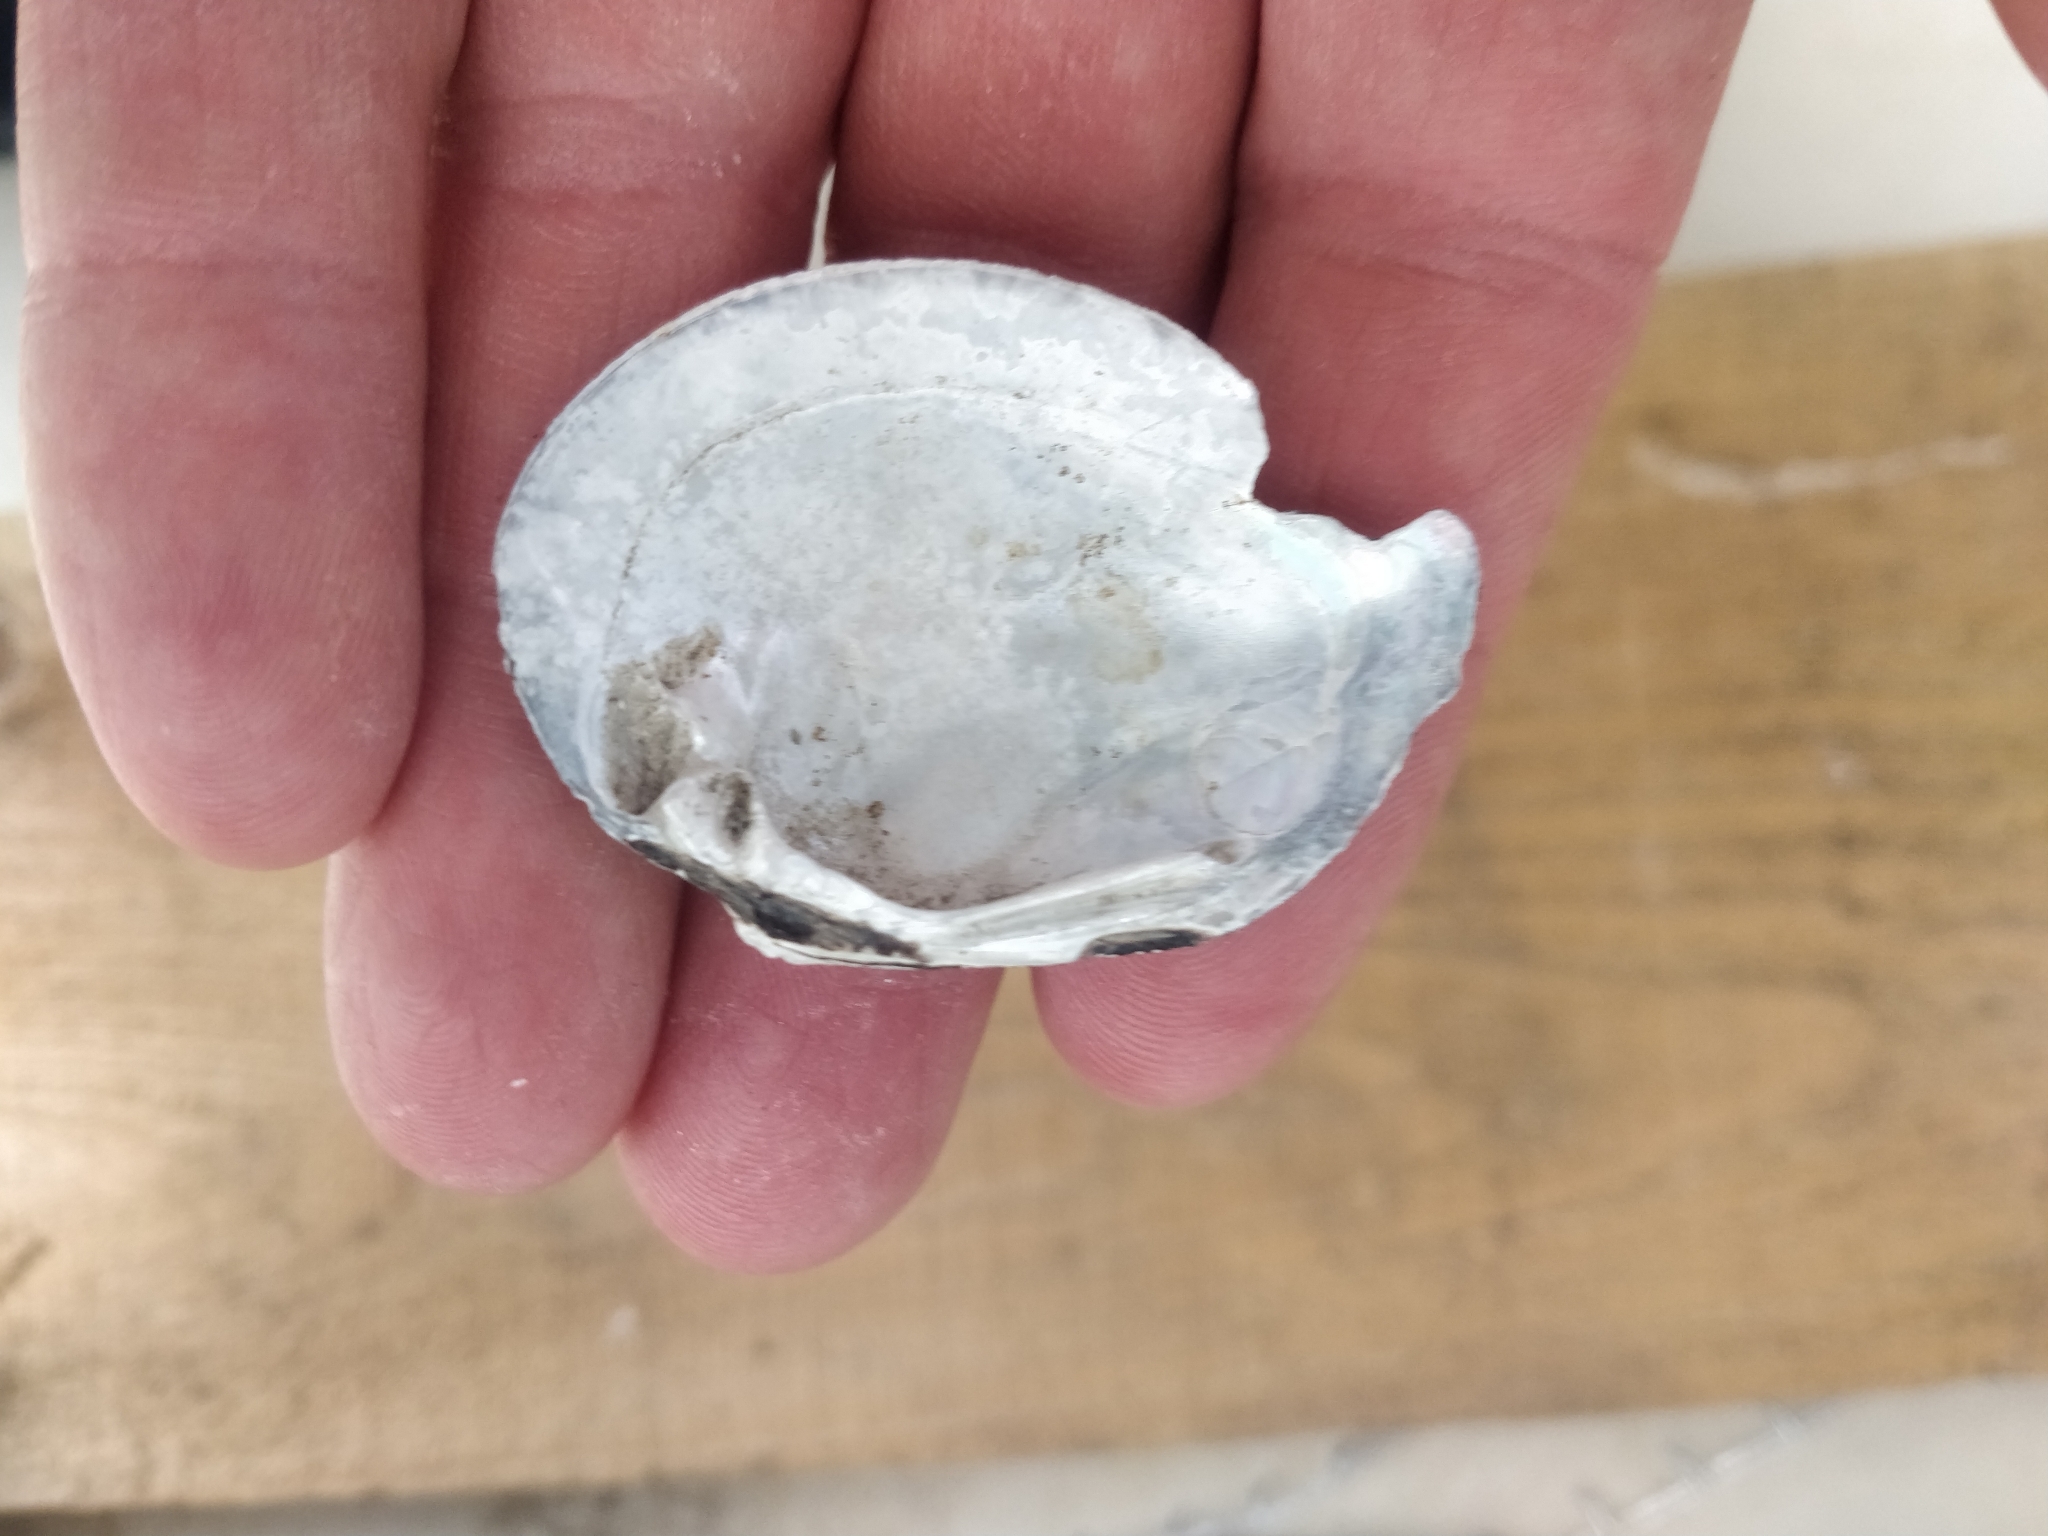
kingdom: Animalia
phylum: Mollusca
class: Bivalvia
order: Unionida
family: Unionidae
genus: Fusconaia
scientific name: Fusconaia flava
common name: Wabash pigtoe
